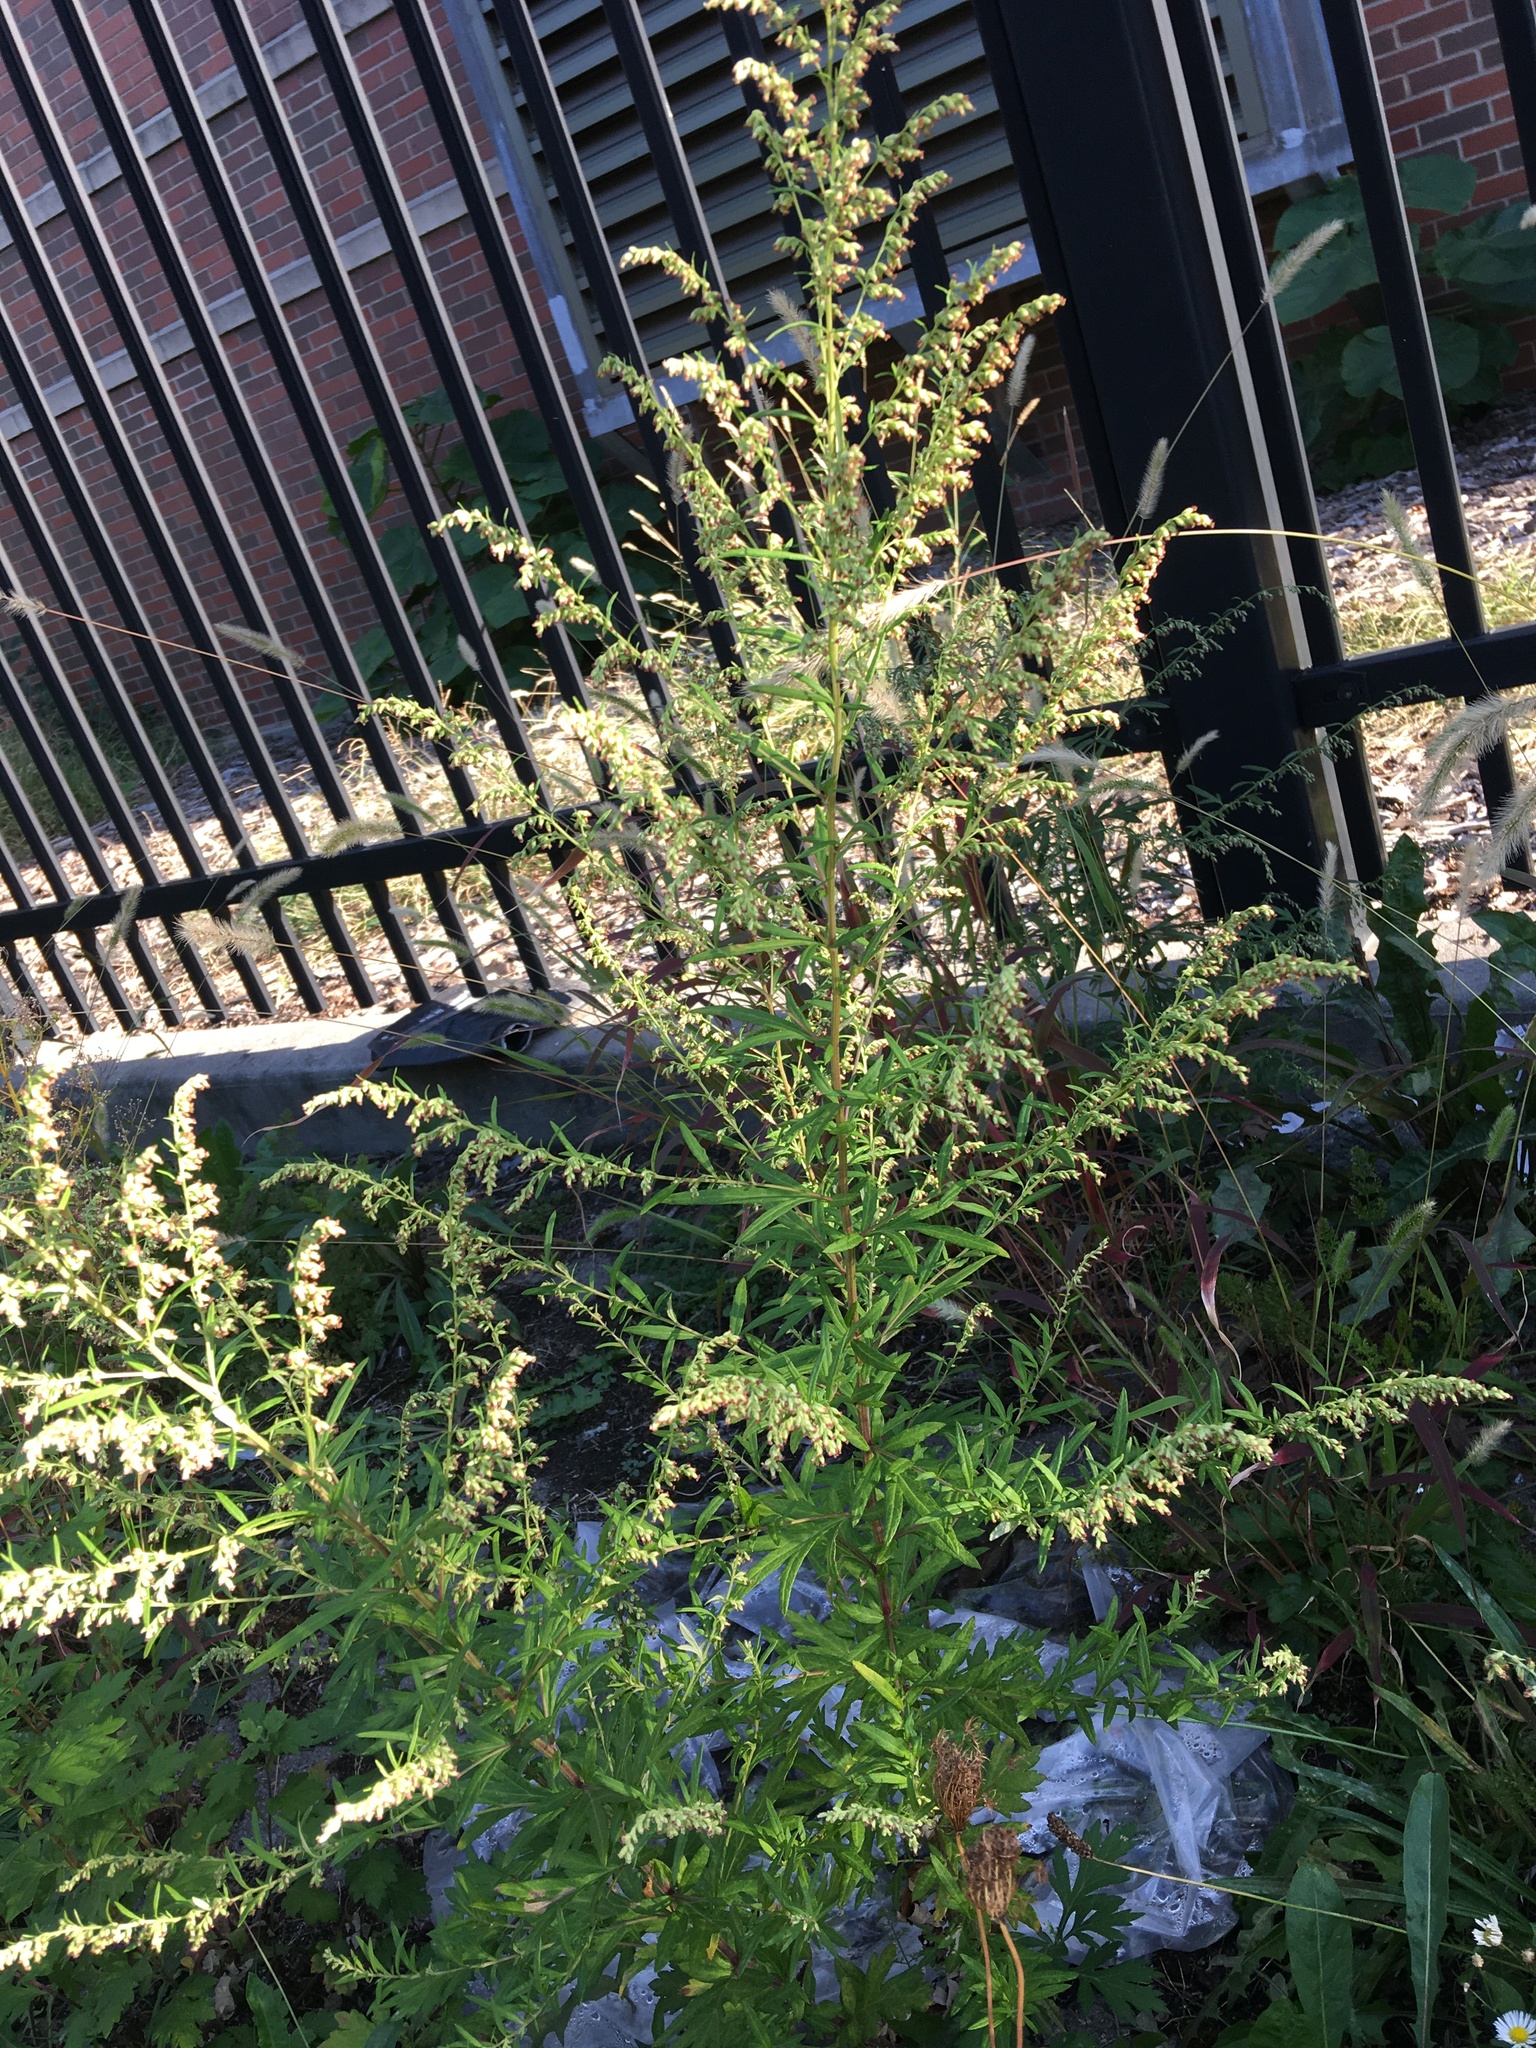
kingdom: Plantae
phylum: Tracheophyta
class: Magnoliopsida
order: Asterales
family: Asteraceae
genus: Artemisia
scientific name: Artemisia vulgaris
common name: Mugwort
